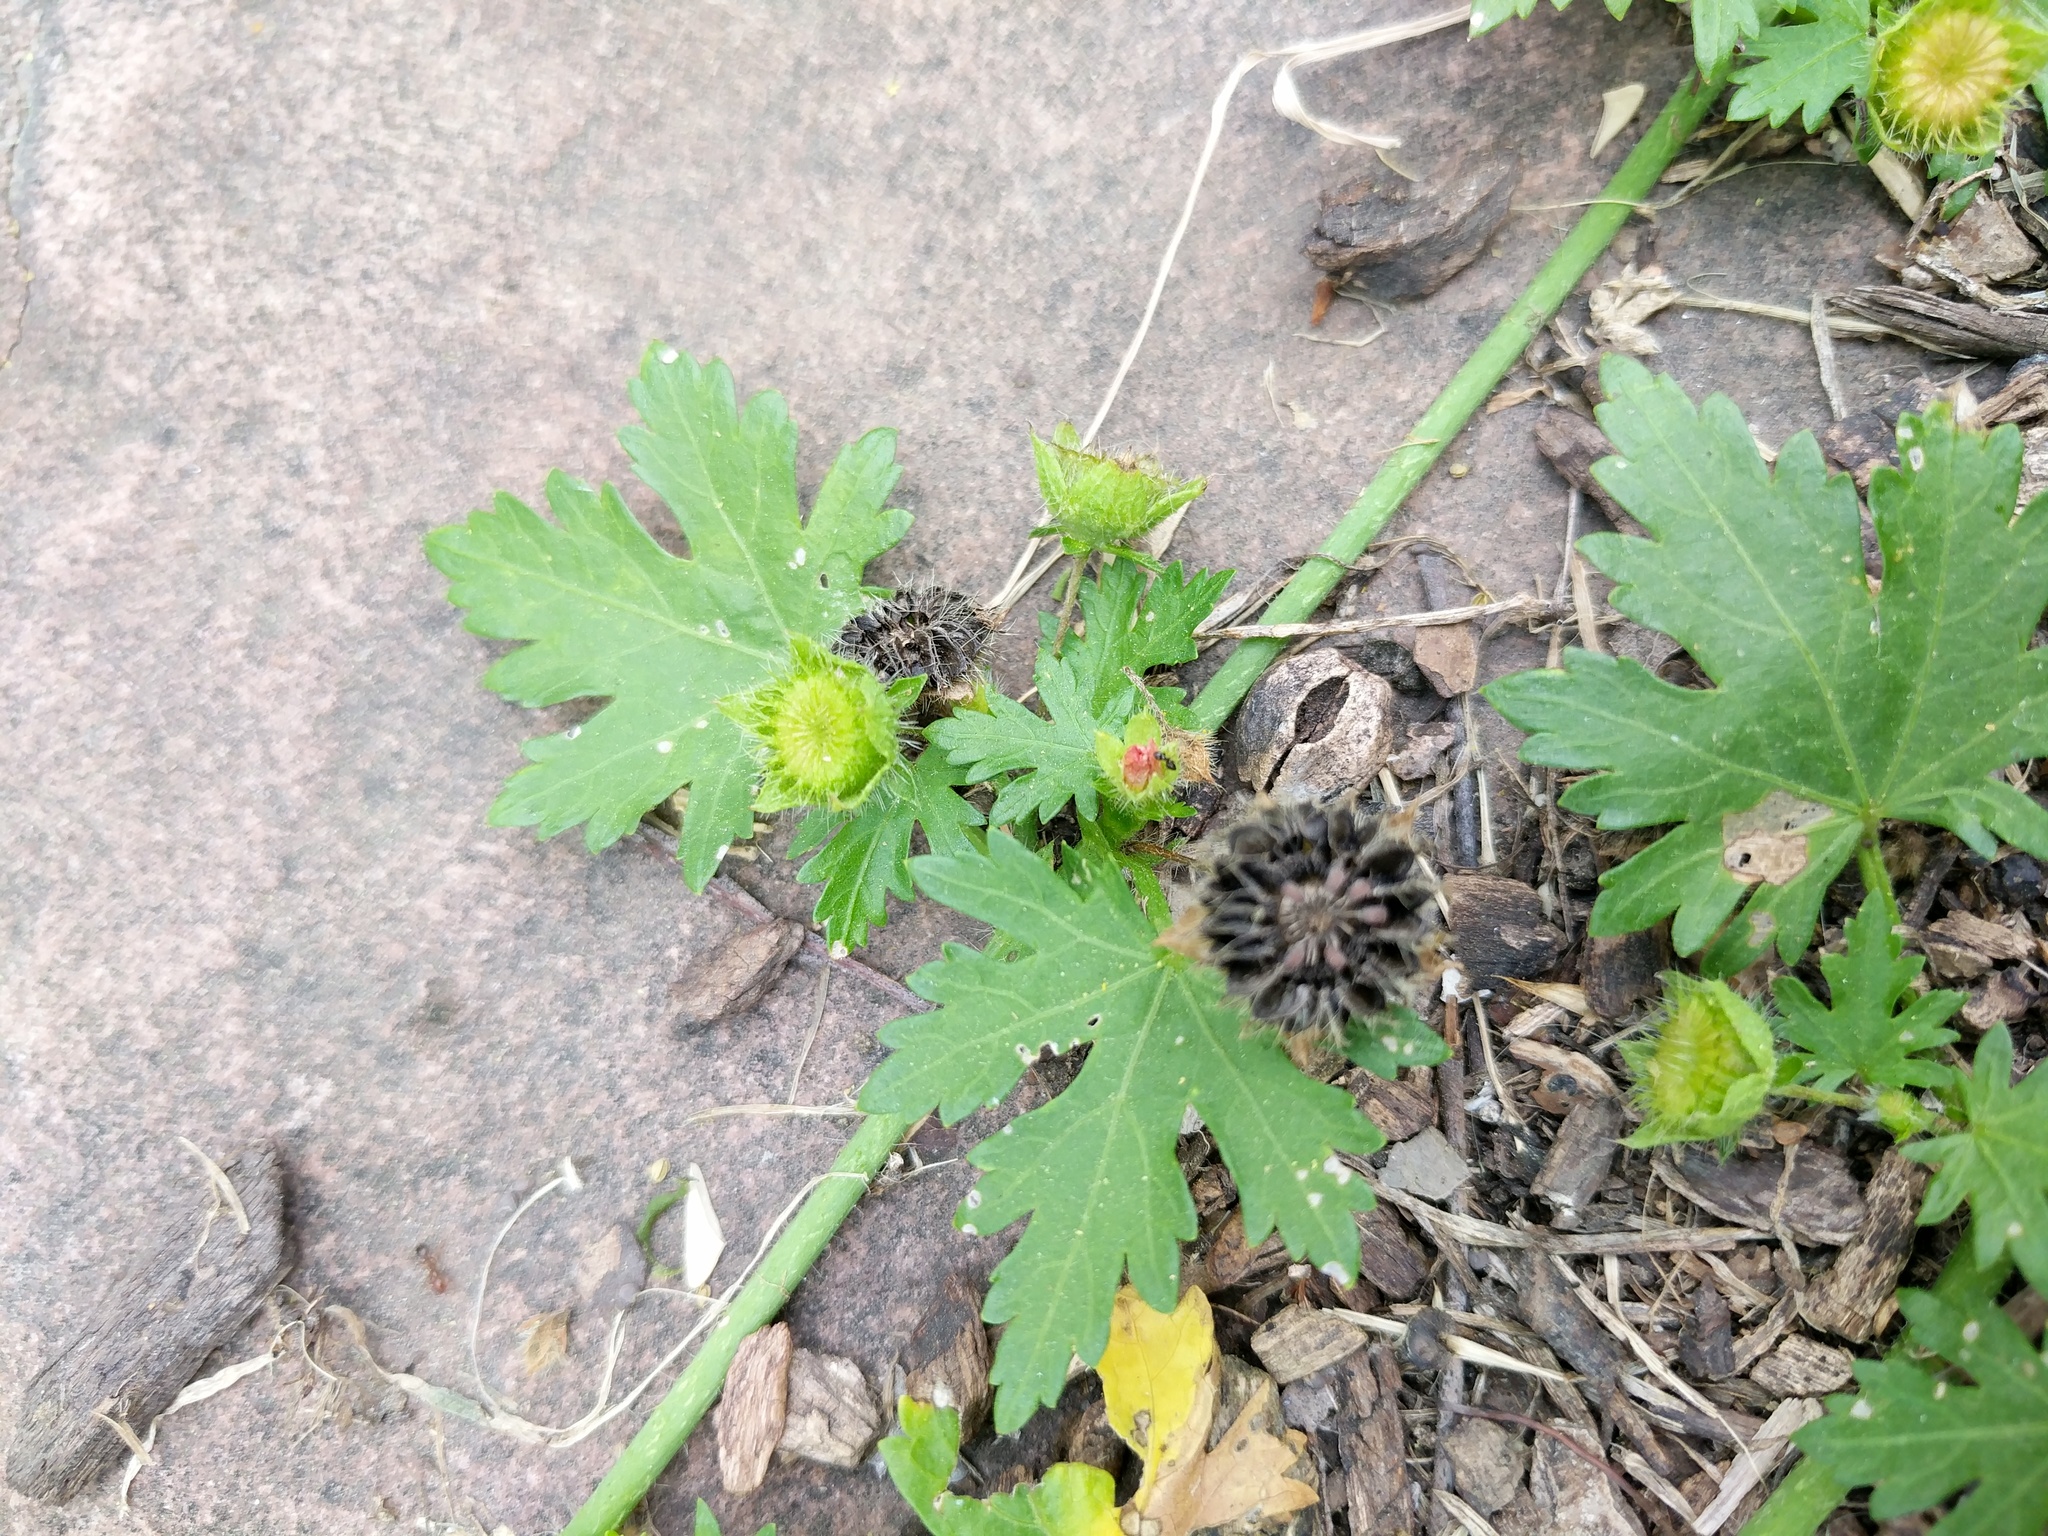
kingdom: Plantae
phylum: Tracheophyta
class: Magnoliopsida
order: Malvales
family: Malvaceae
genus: Modiola
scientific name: Modiola caroliniana
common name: Carolina bristlemallow
